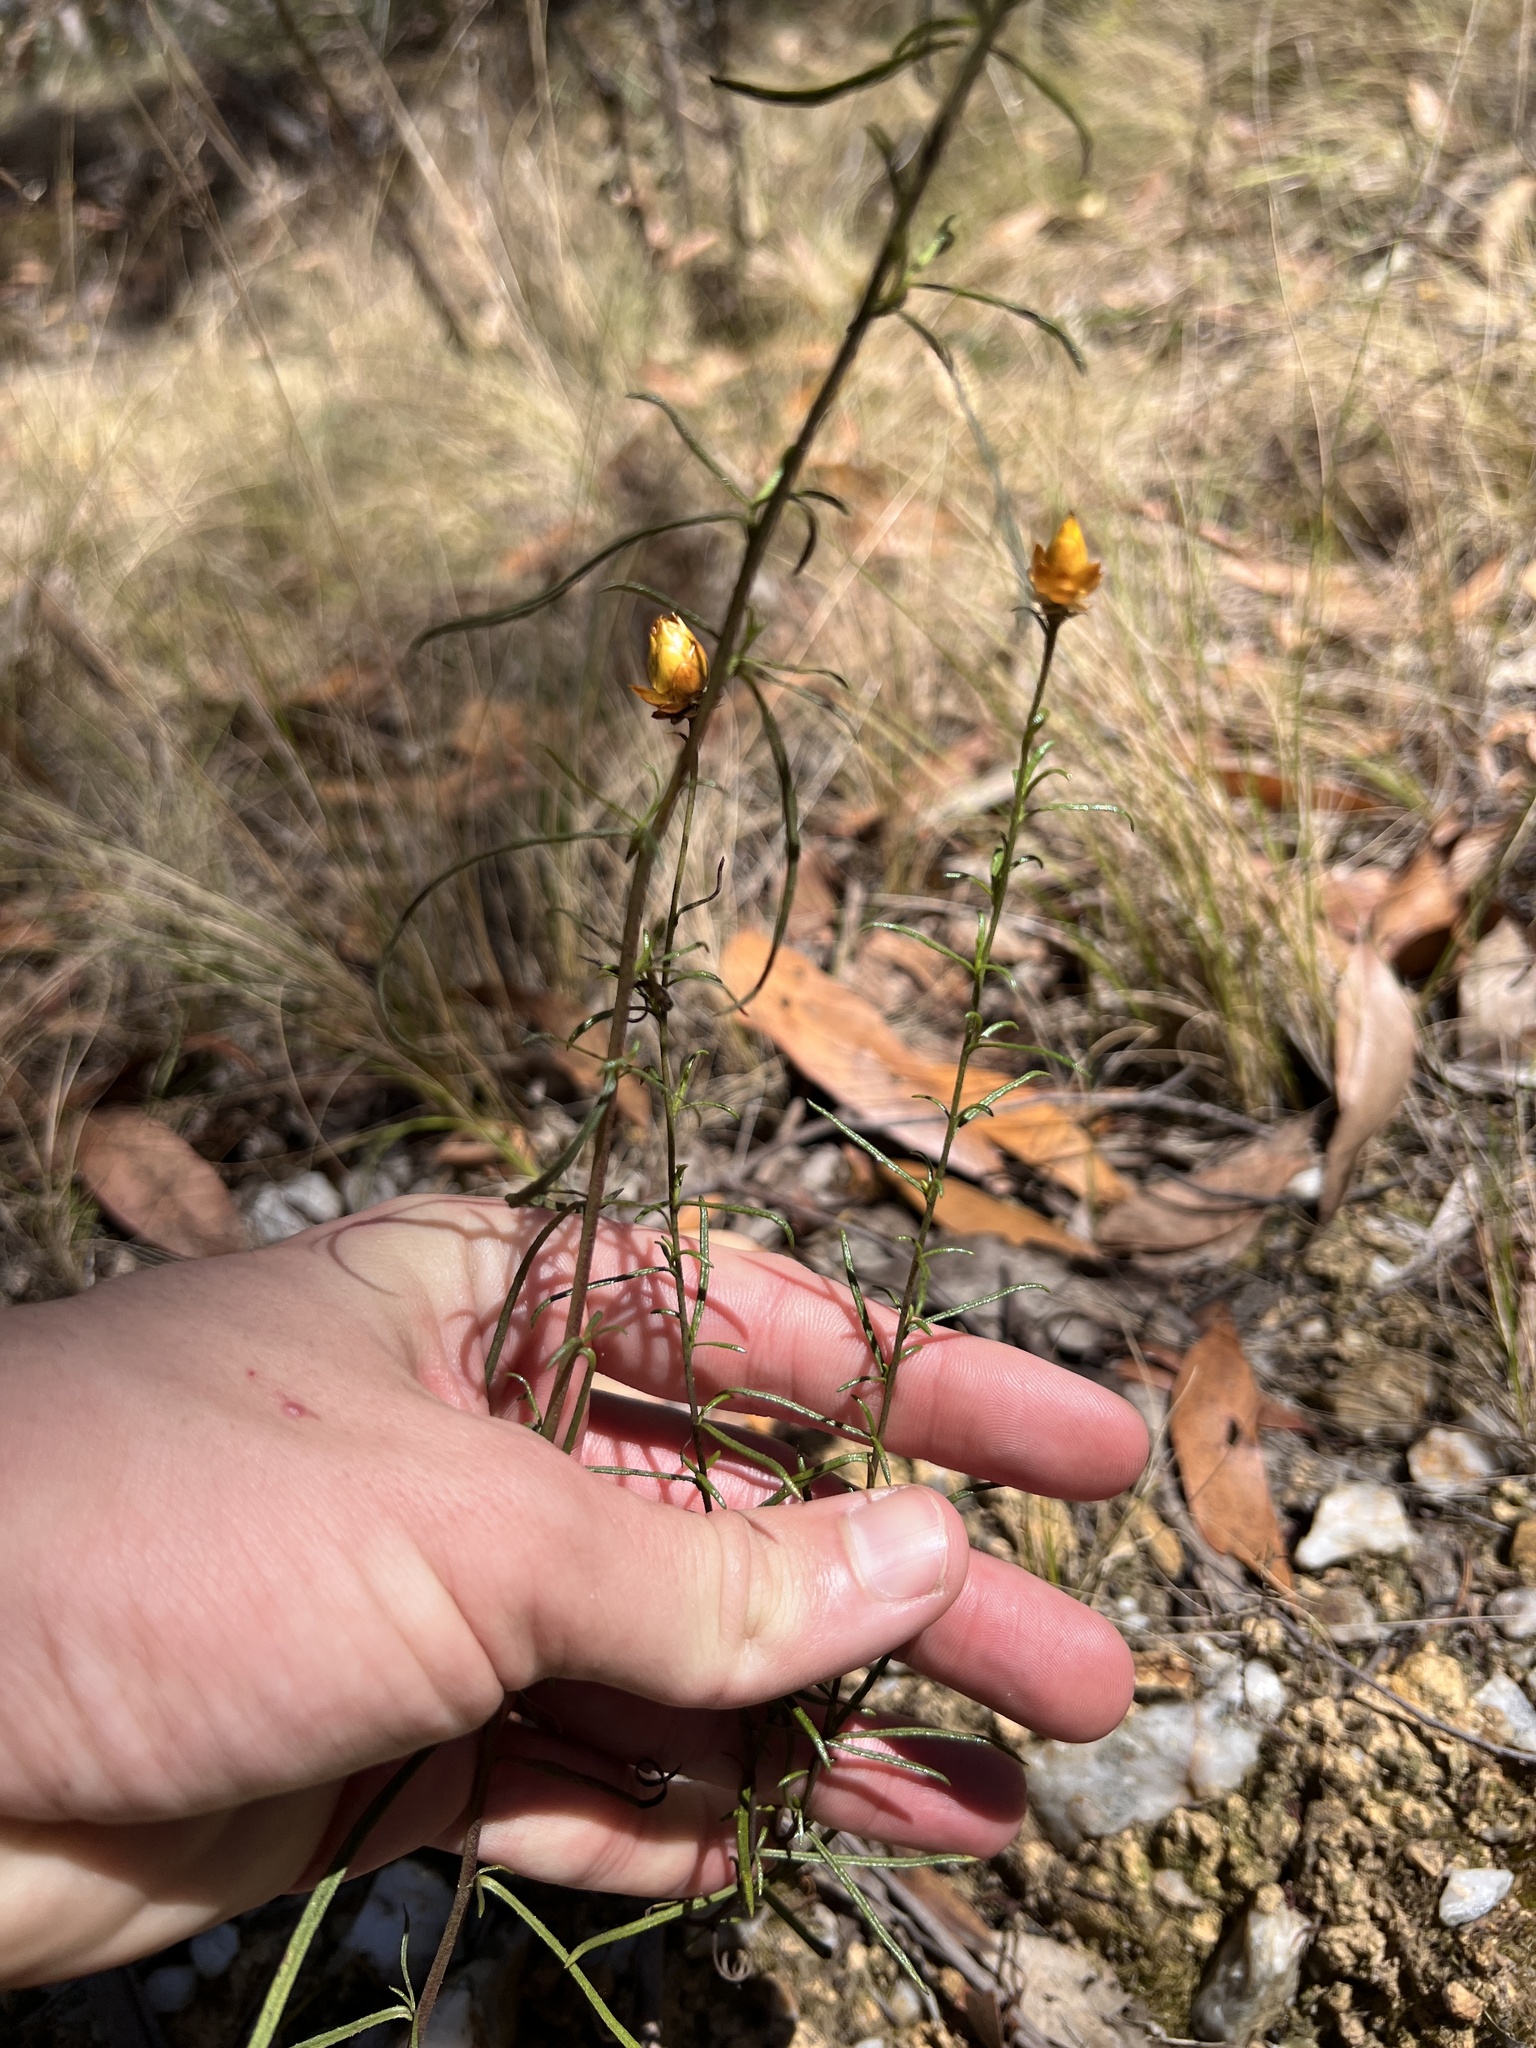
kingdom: Plantae
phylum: Tracheophyta
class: Magnoliopsida
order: Asterales
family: Asteraceae
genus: Xerochrysum
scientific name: Xerochrysum viscosum
